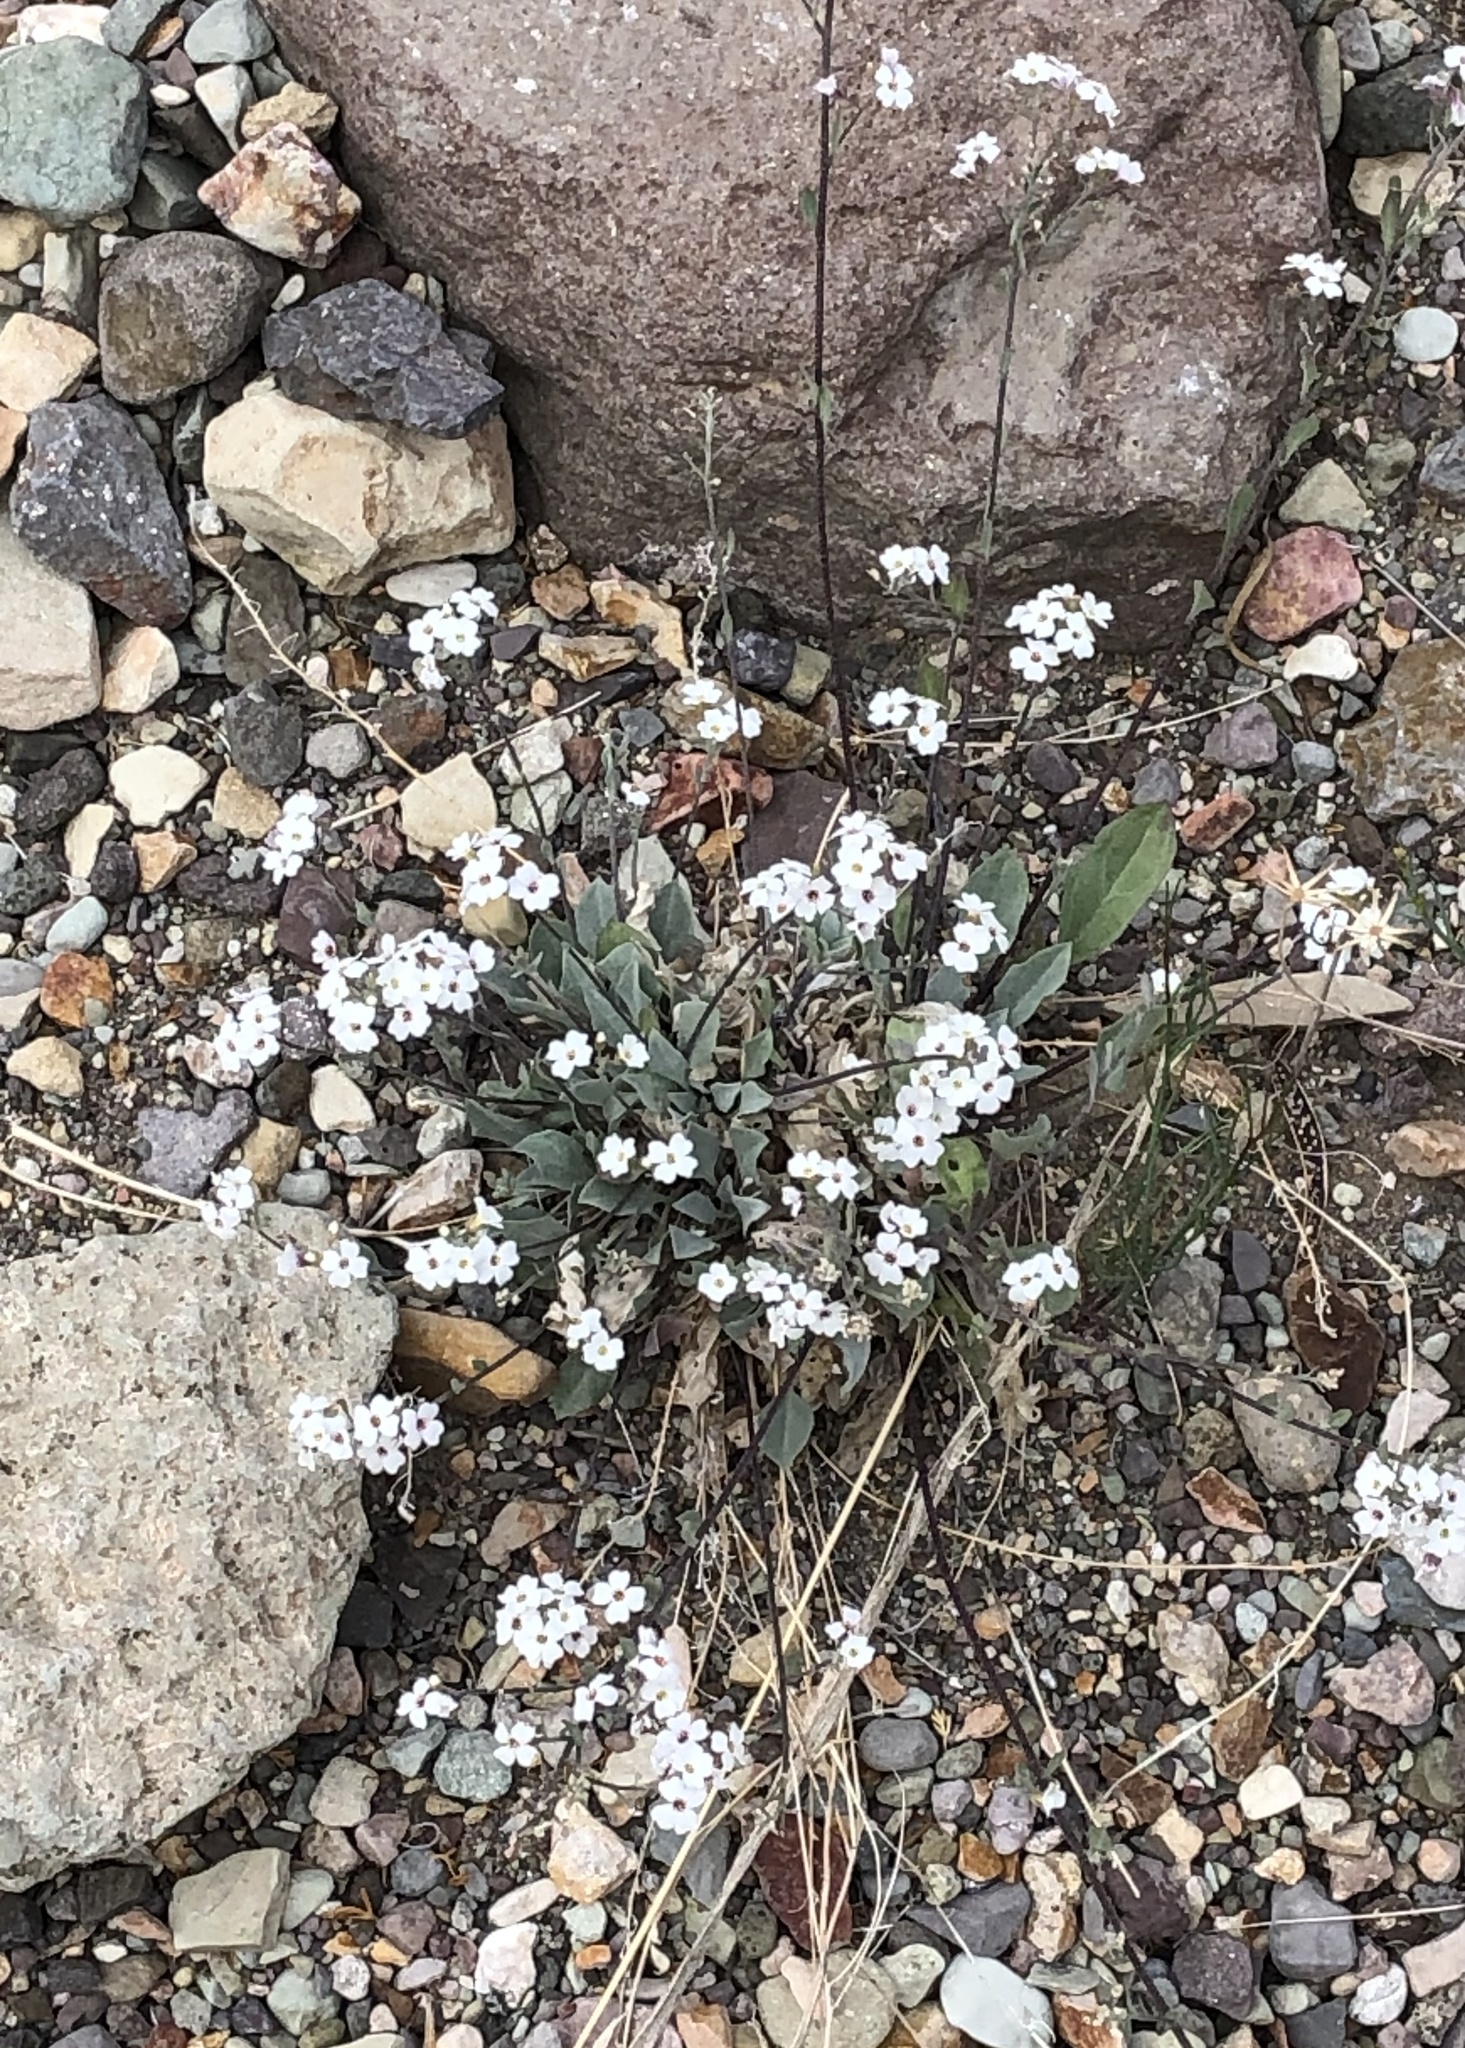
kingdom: Plantae
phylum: Tracheophyta
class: Magnoliopsida
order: Brassicales
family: Brassicaceae
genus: Physaria
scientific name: Physaria purpurea
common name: Rose bladderpod
